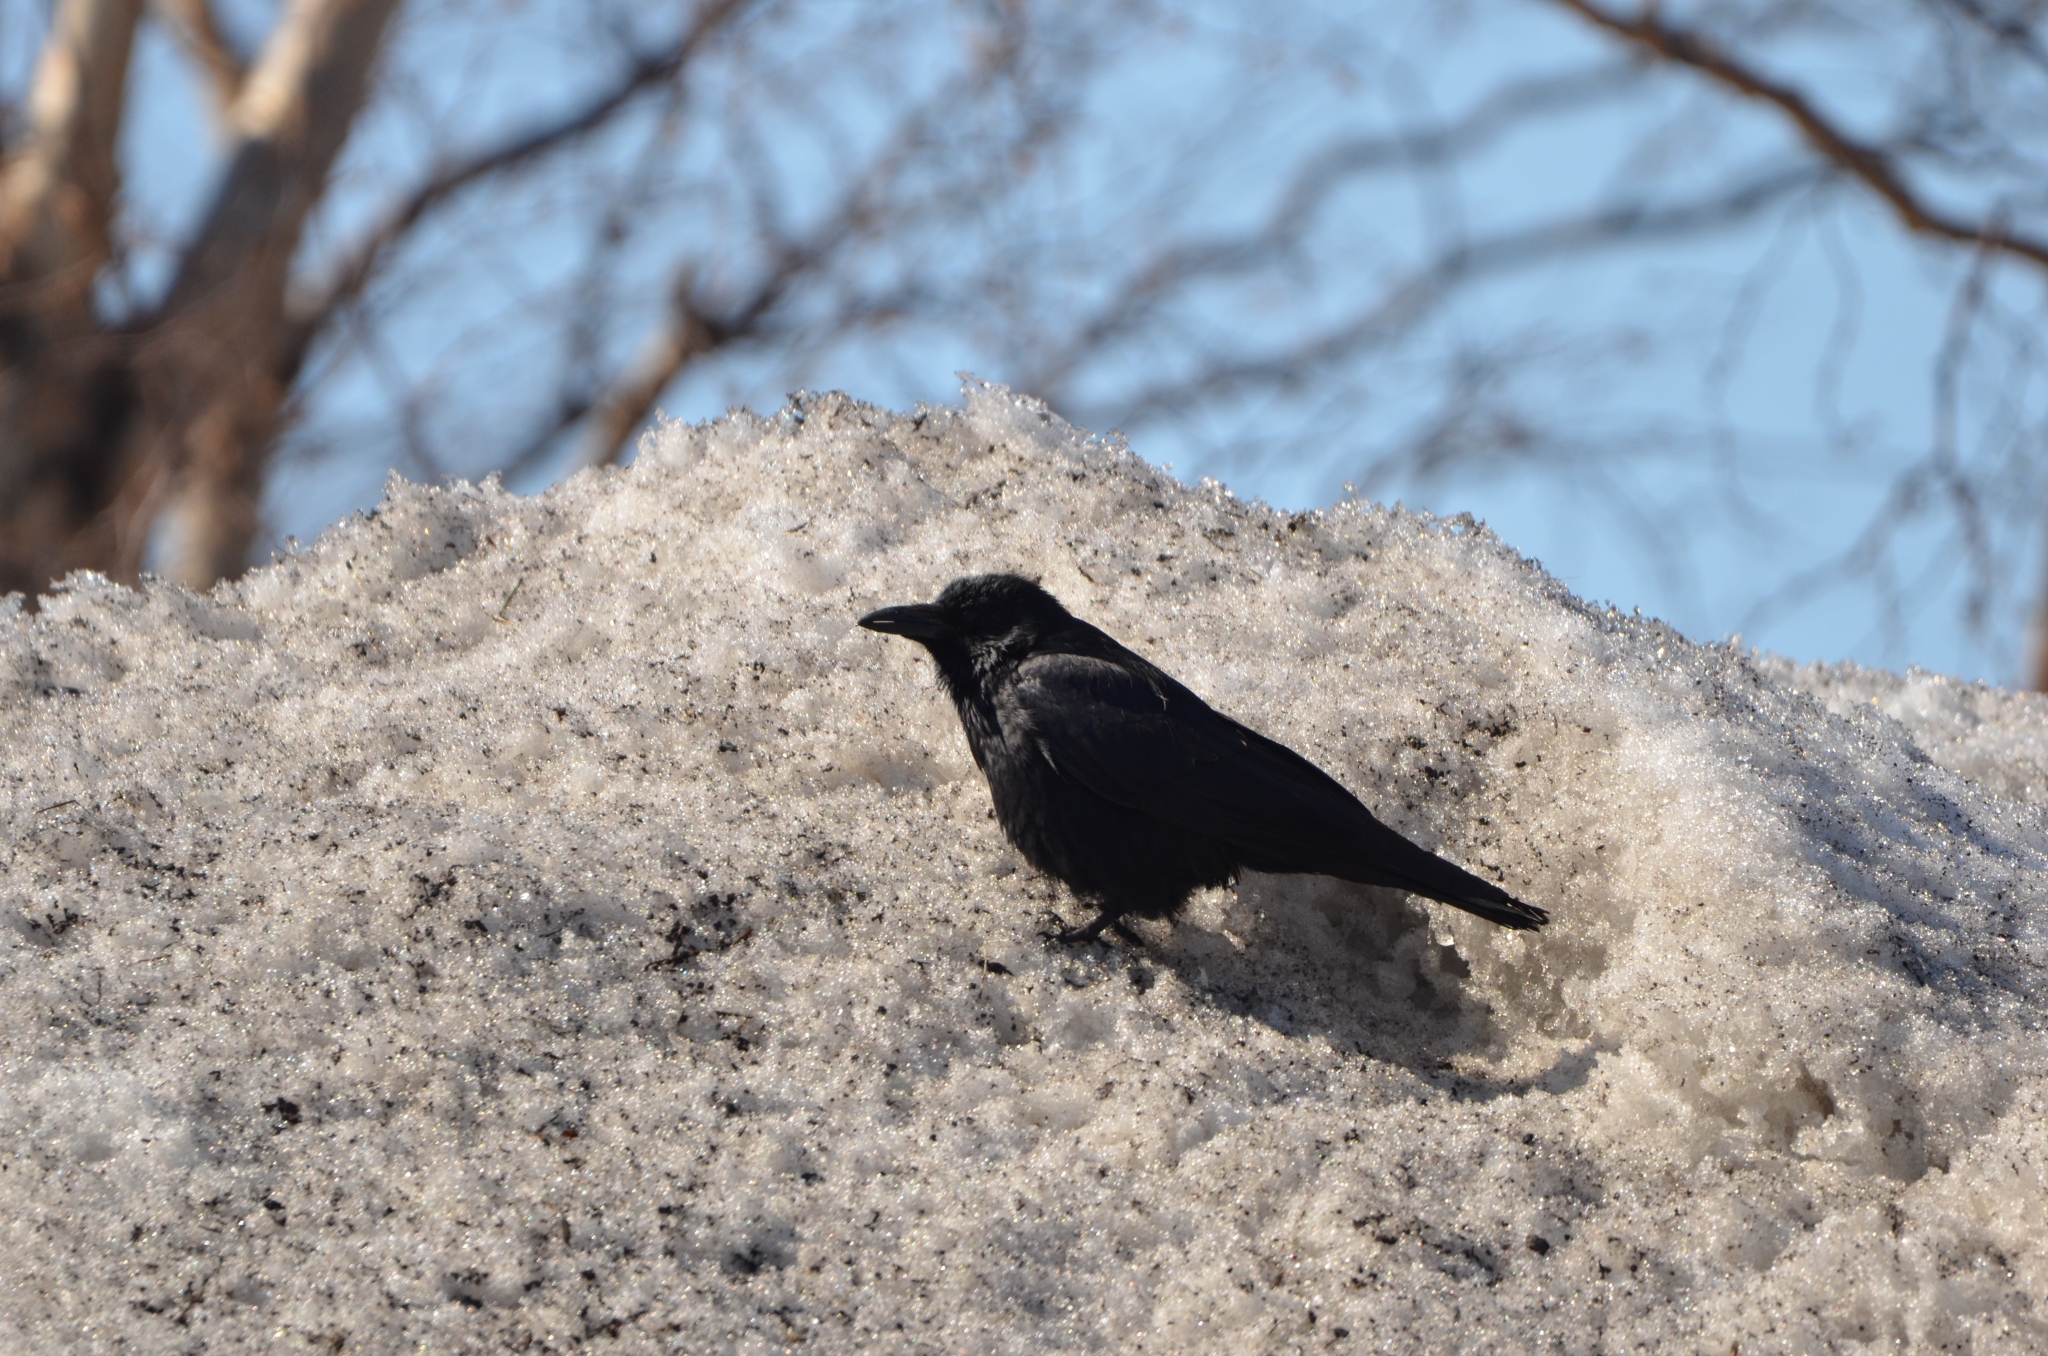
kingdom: Animalia
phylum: Chordata
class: Aves
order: Passeriformes
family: Corvidae
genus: Corvus
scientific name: Corvus corone
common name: Carrion crow
